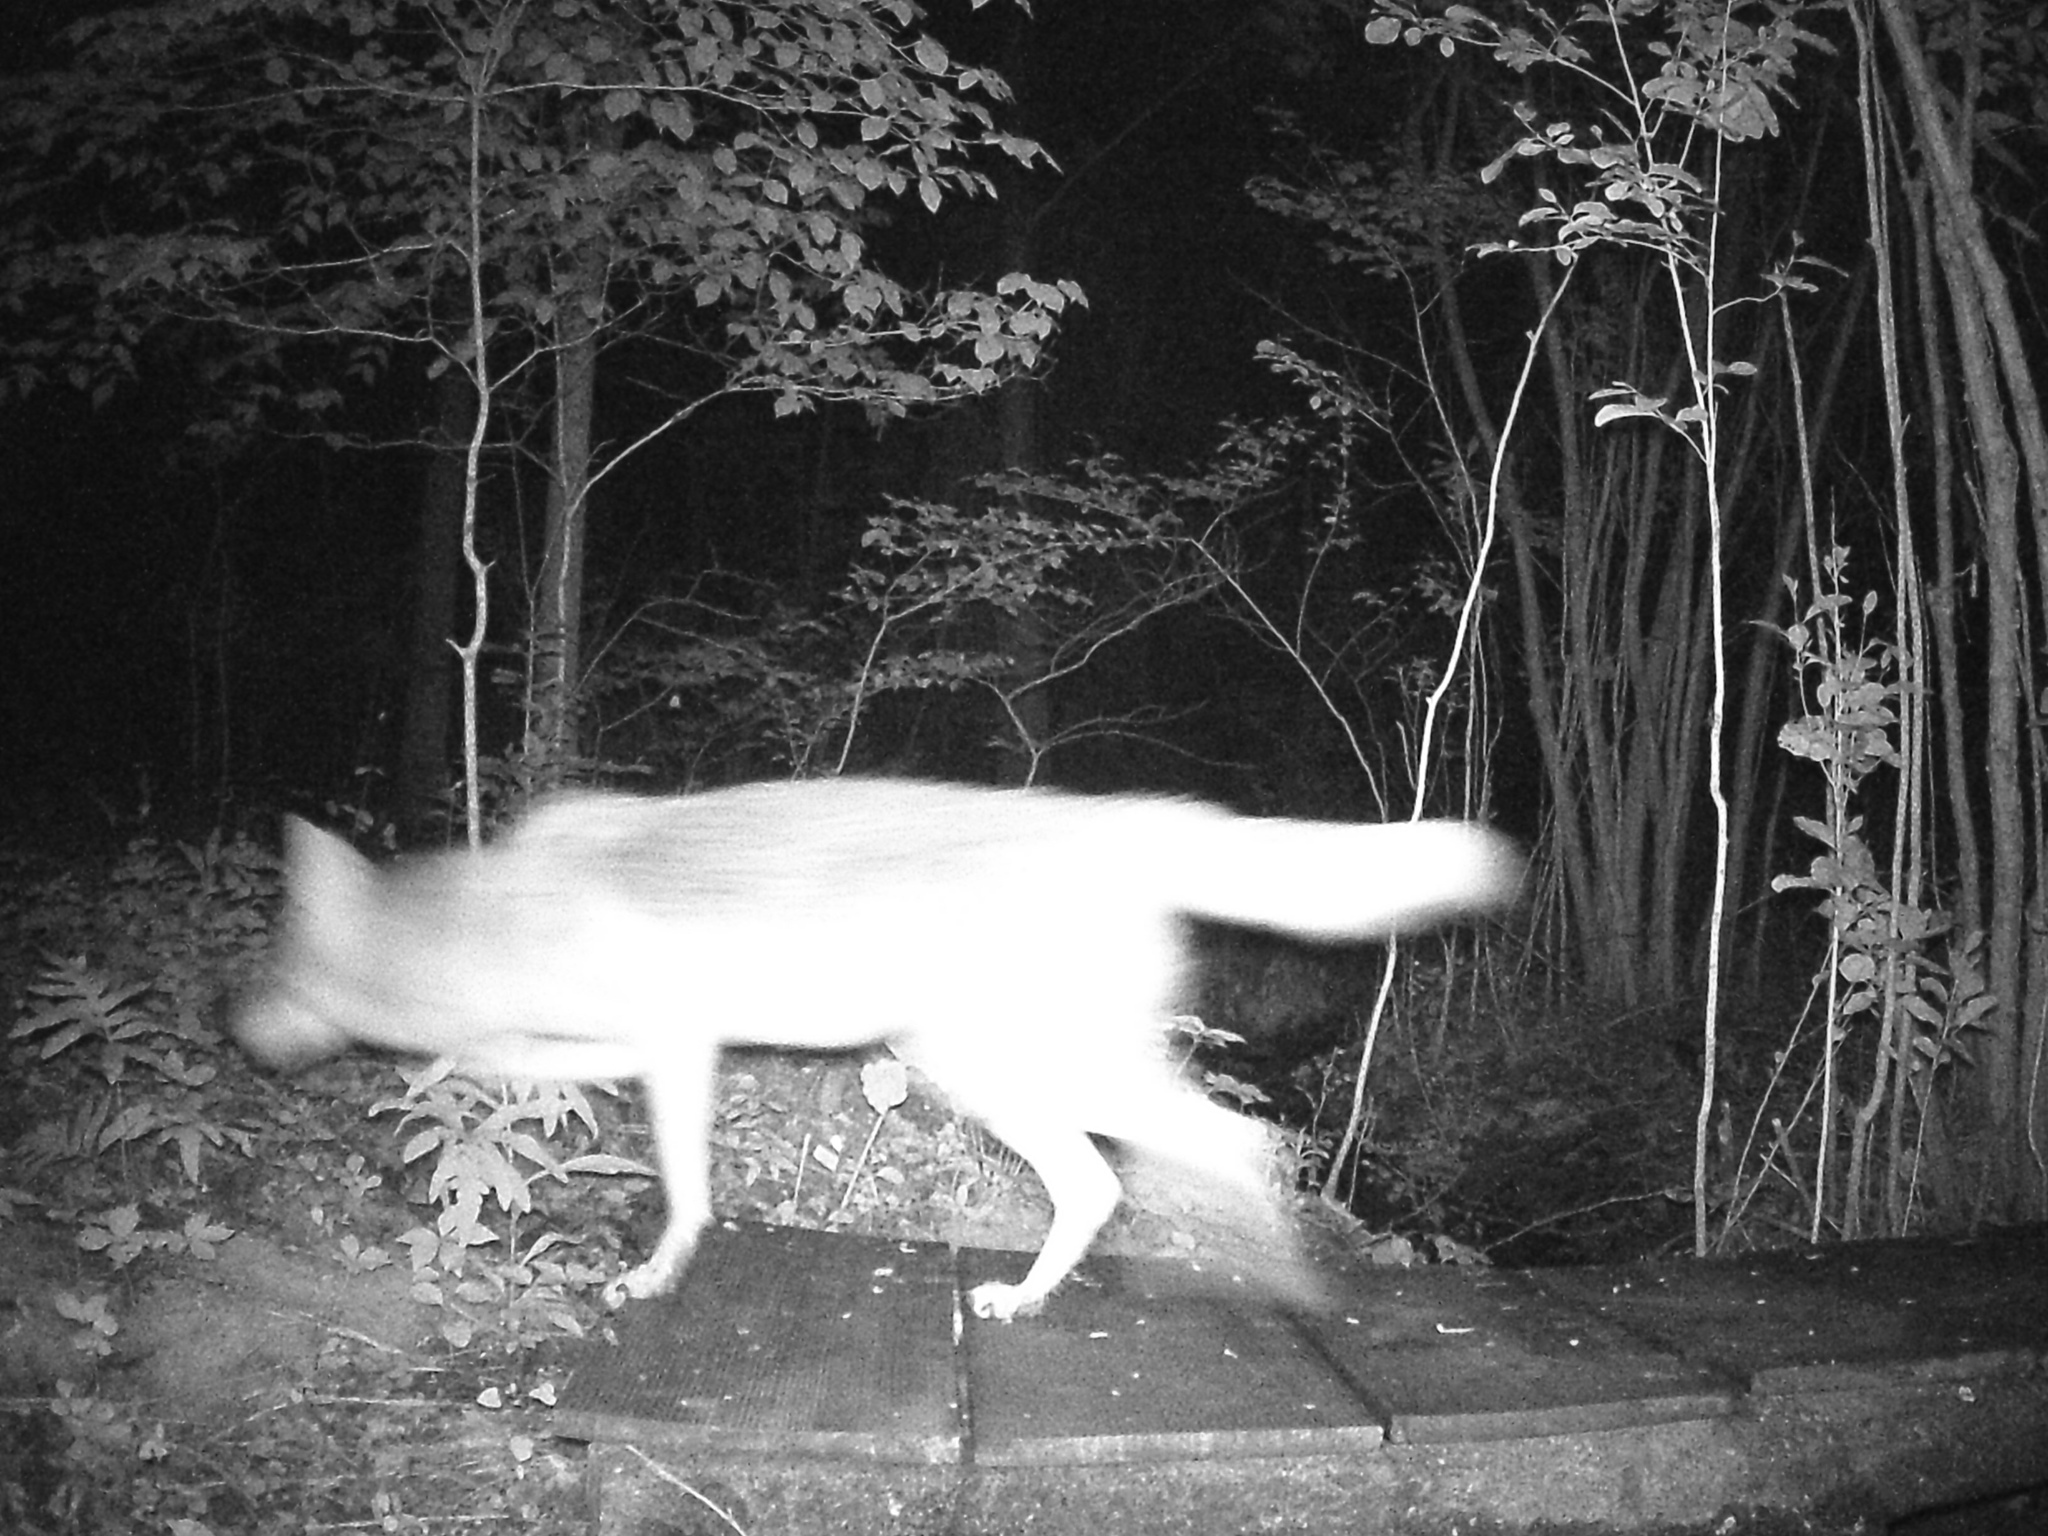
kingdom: Animalia
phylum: Chordata
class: Mammalia
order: Carnivora
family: Canidae
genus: Canis
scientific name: Canis latrans
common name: Coyote
